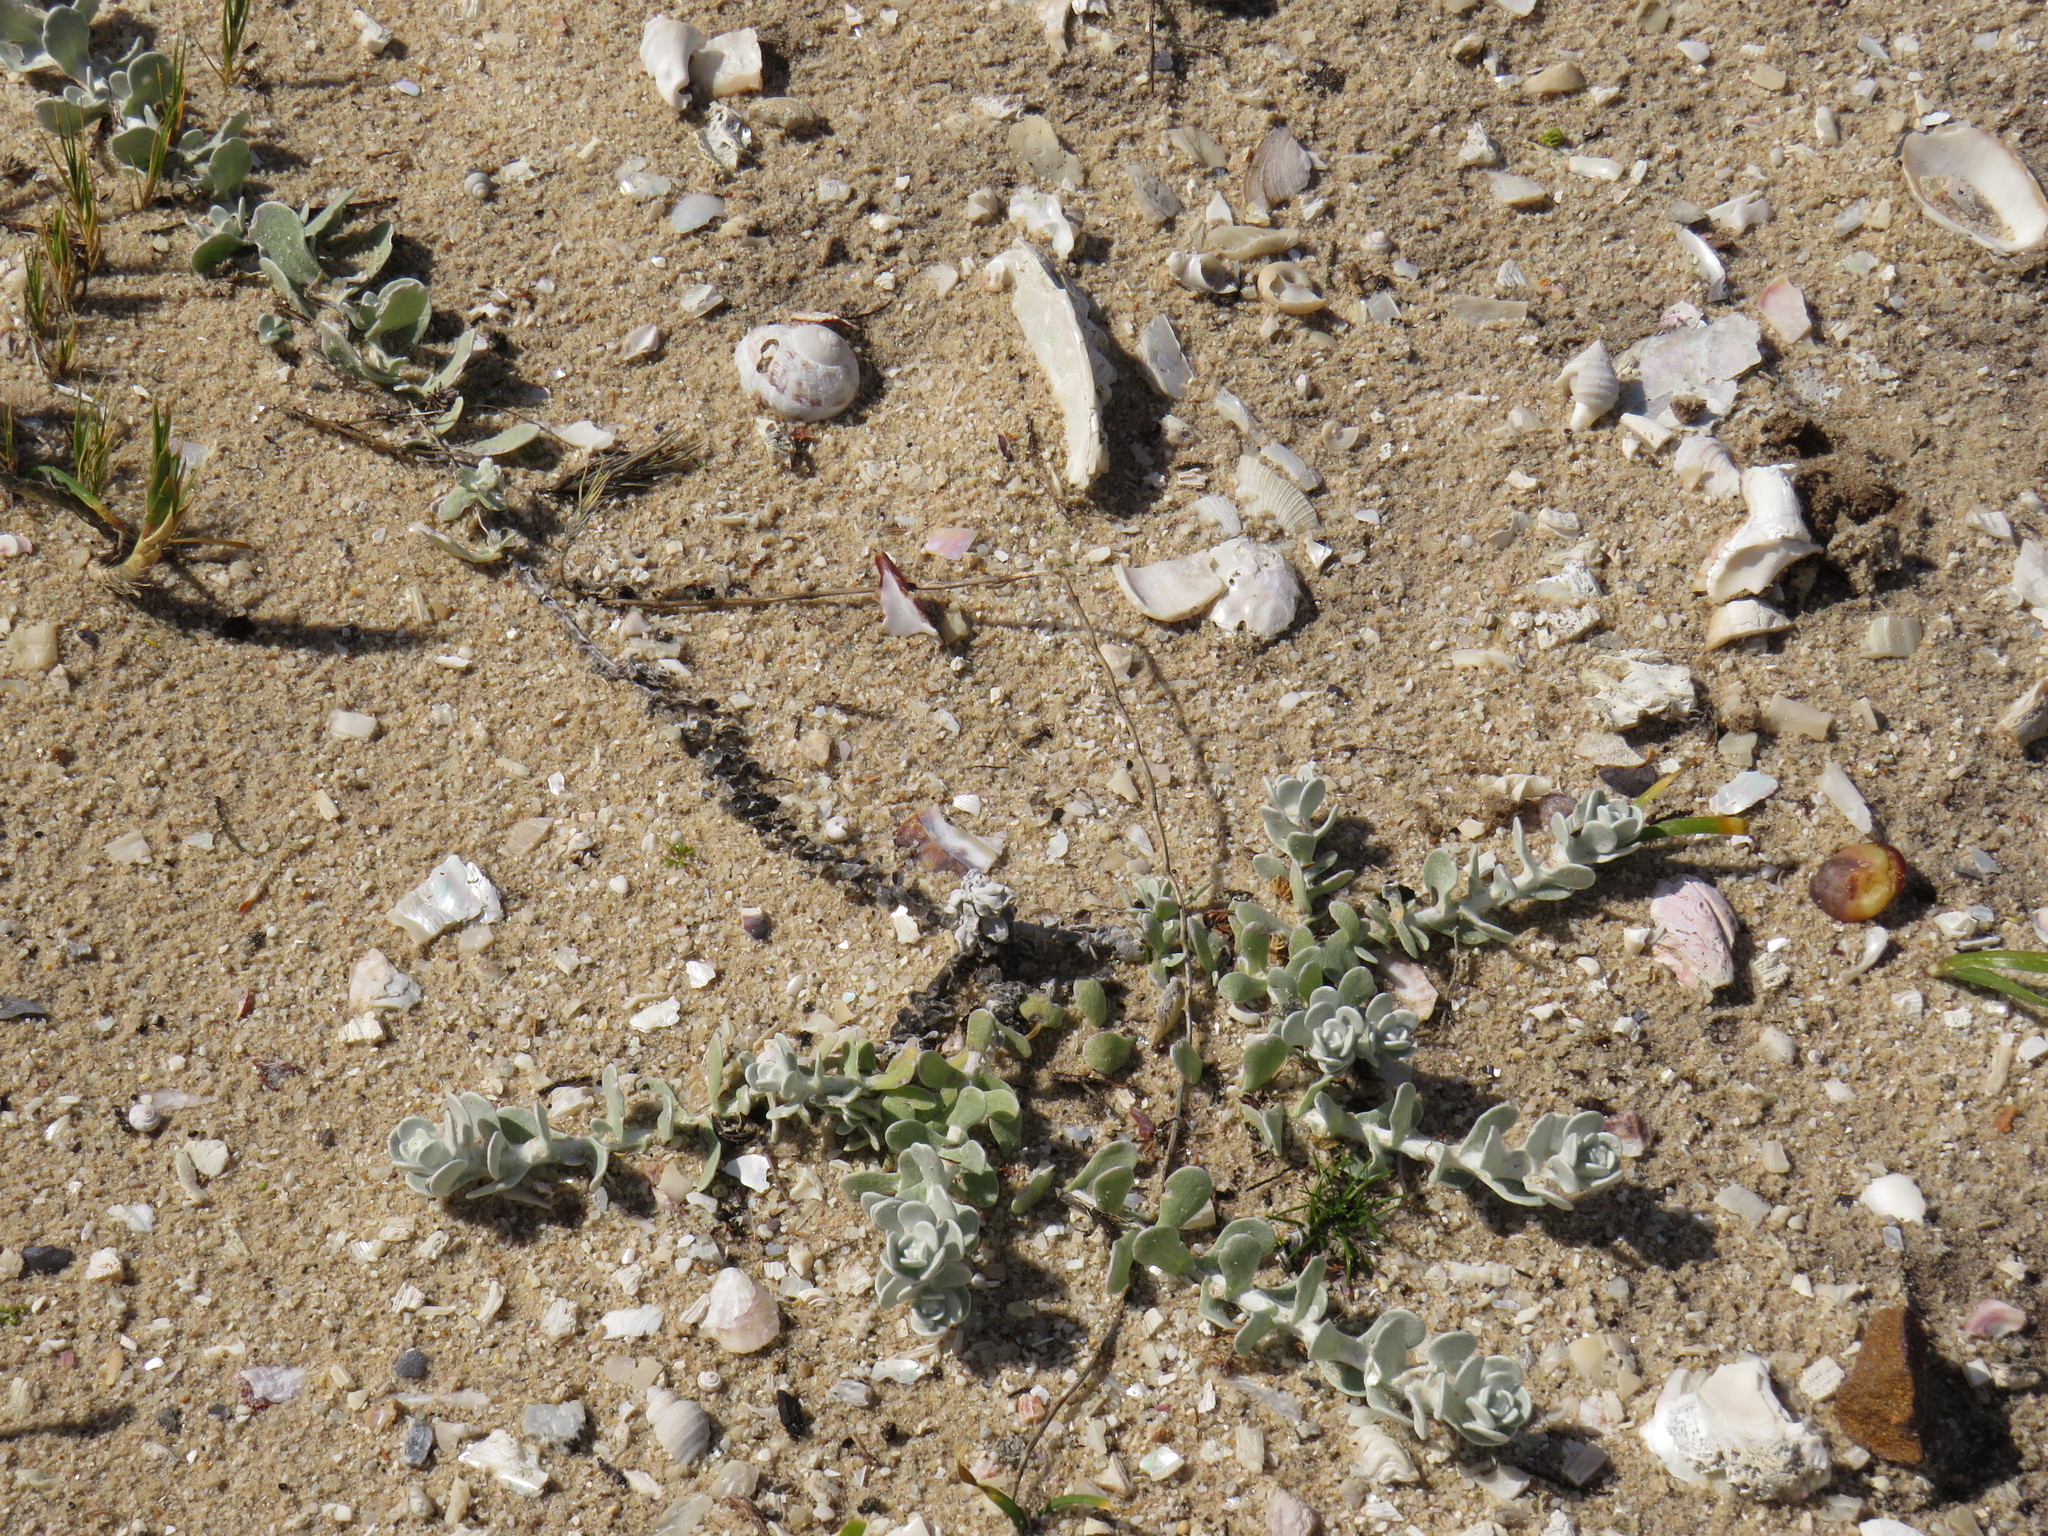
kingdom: Plantae
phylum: Tracheophyta
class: Magnoliopsida
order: Asterales
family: Asteraceae
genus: Helichrysum
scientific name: Helichrysum crispum
